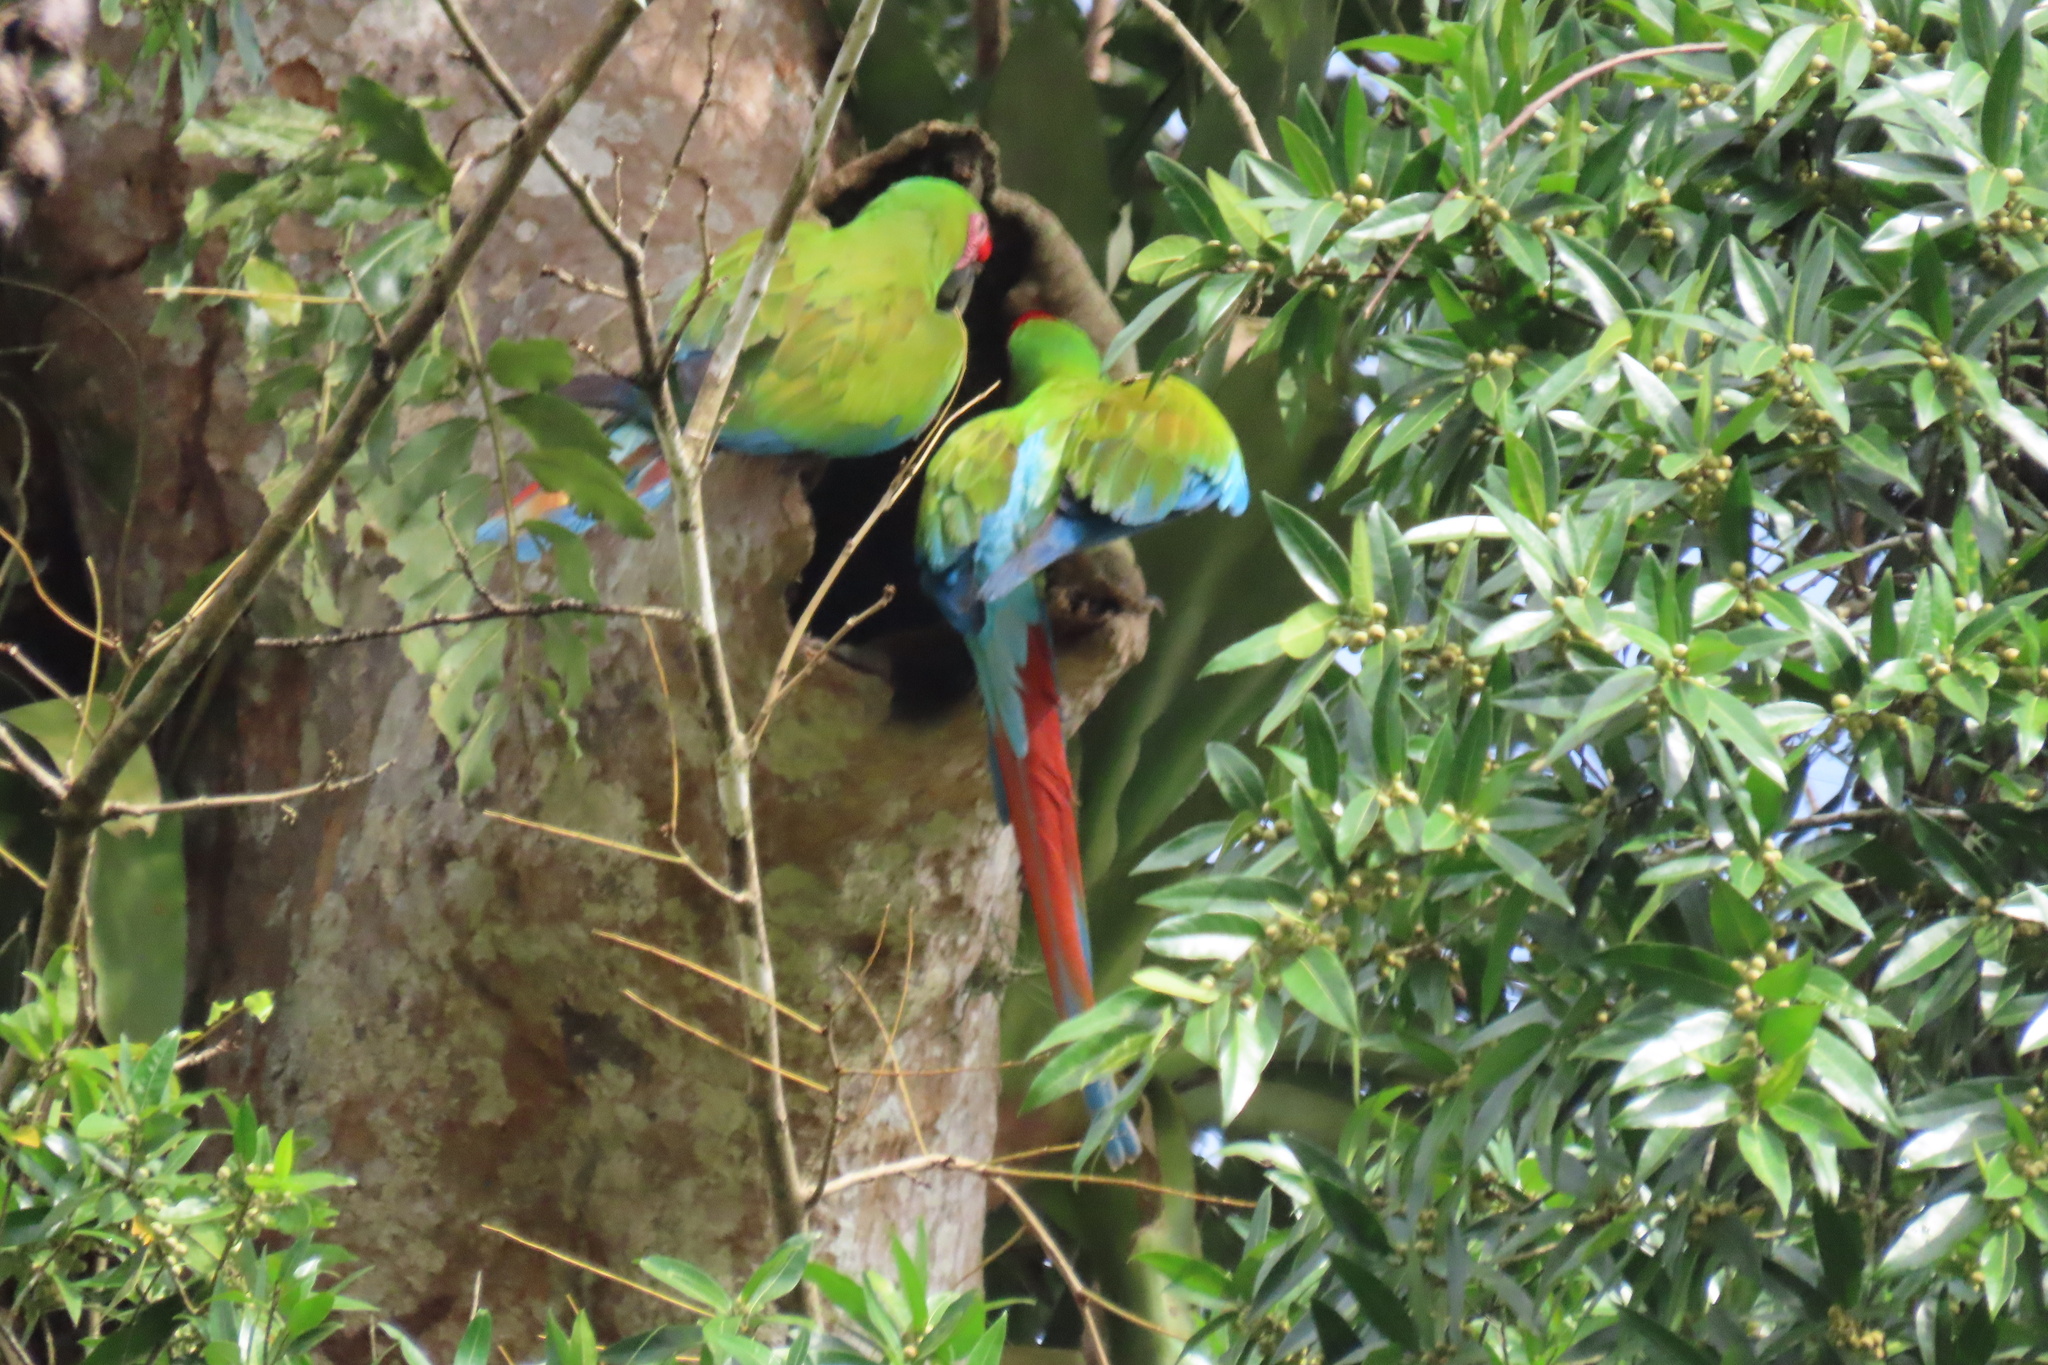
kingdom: Animalia
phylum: Chordata
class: Aves
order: Psittaciformes
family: Psittacidae
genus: Ara
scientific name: Ara ambiguus
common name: Great green macaw
